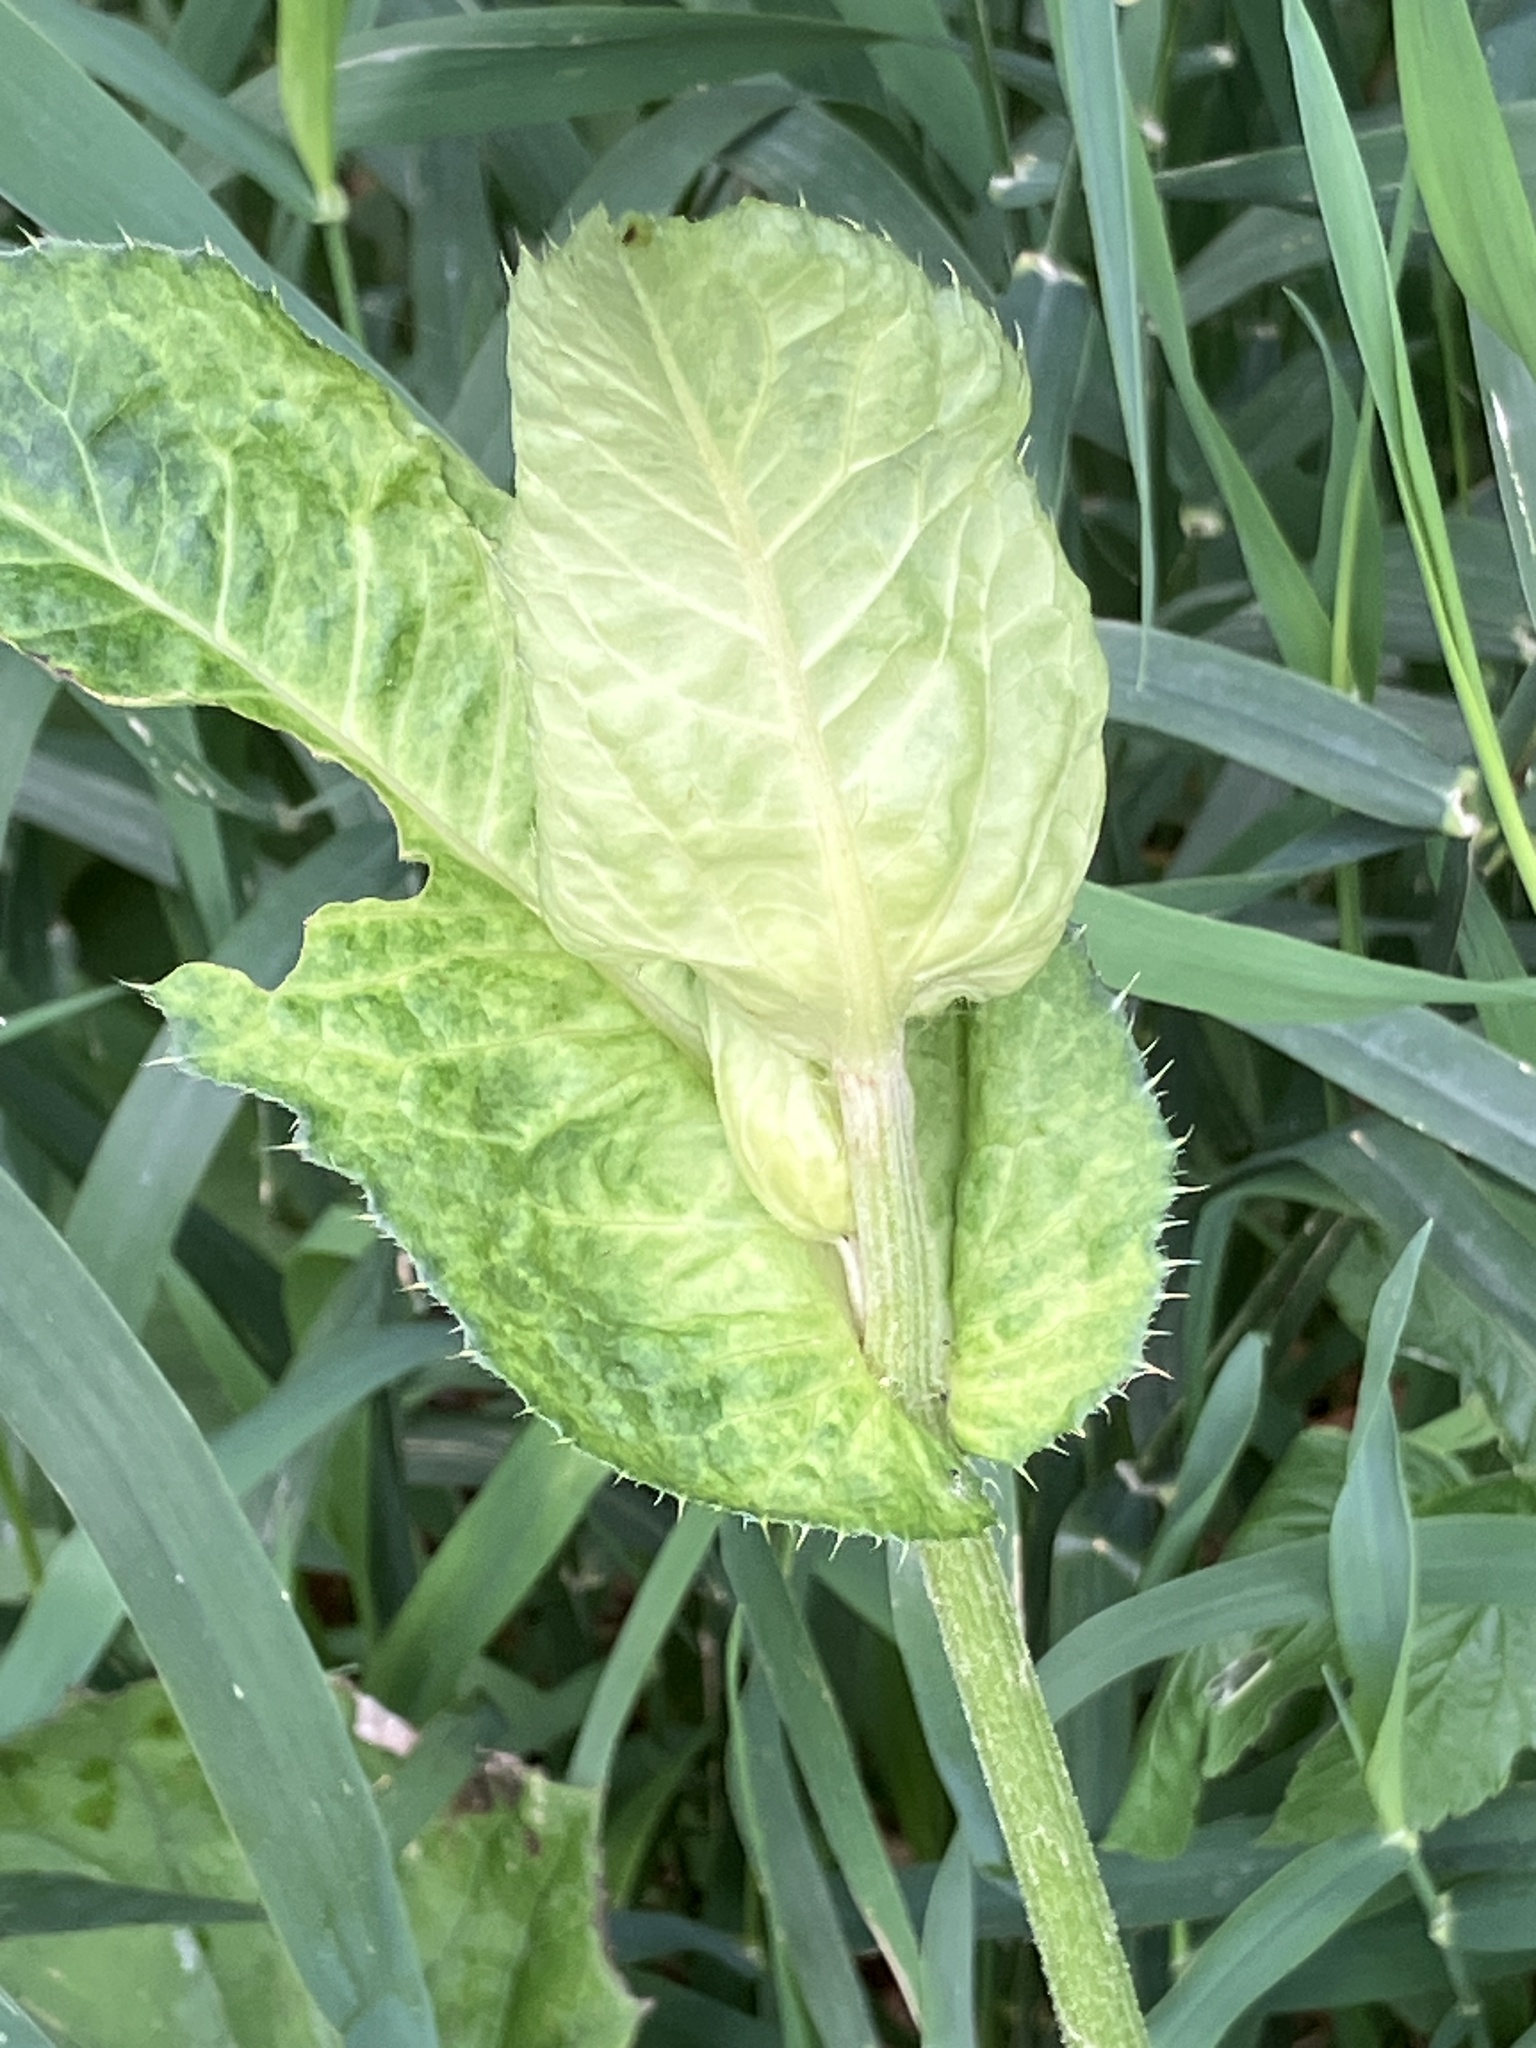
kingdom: Plantae
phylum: Tracheophyta
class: Magnoliopsida
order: Asterales
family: Asteraceae
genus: Cirsium
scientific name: Cirsium oleraceum
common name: Cabbage thistle
